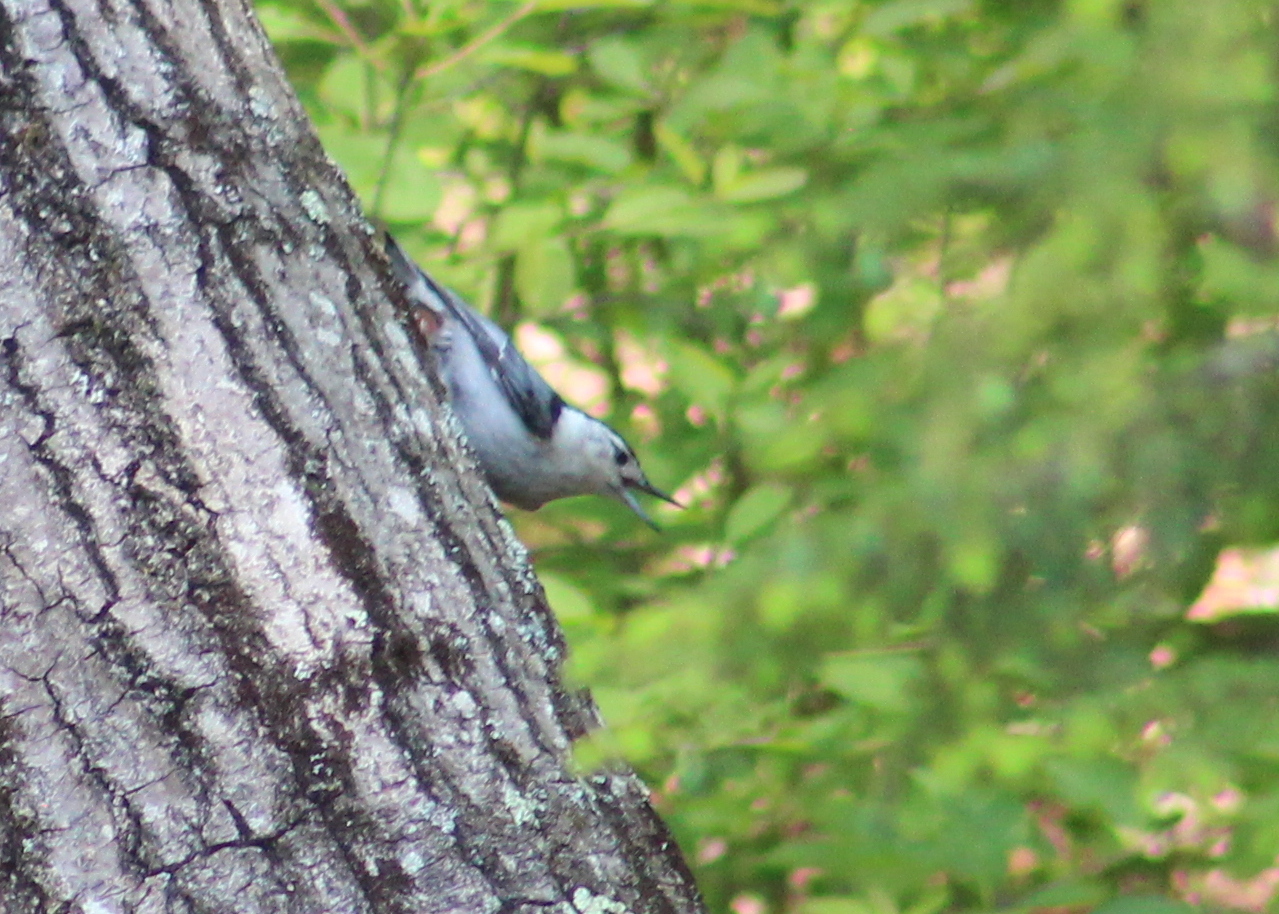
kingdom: Animalia
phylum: Chordata
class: Aves
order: Passeriformes
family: Sittidae
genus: Sitta
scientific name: Sitta carolinensis
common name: White-breasted nuthatch
